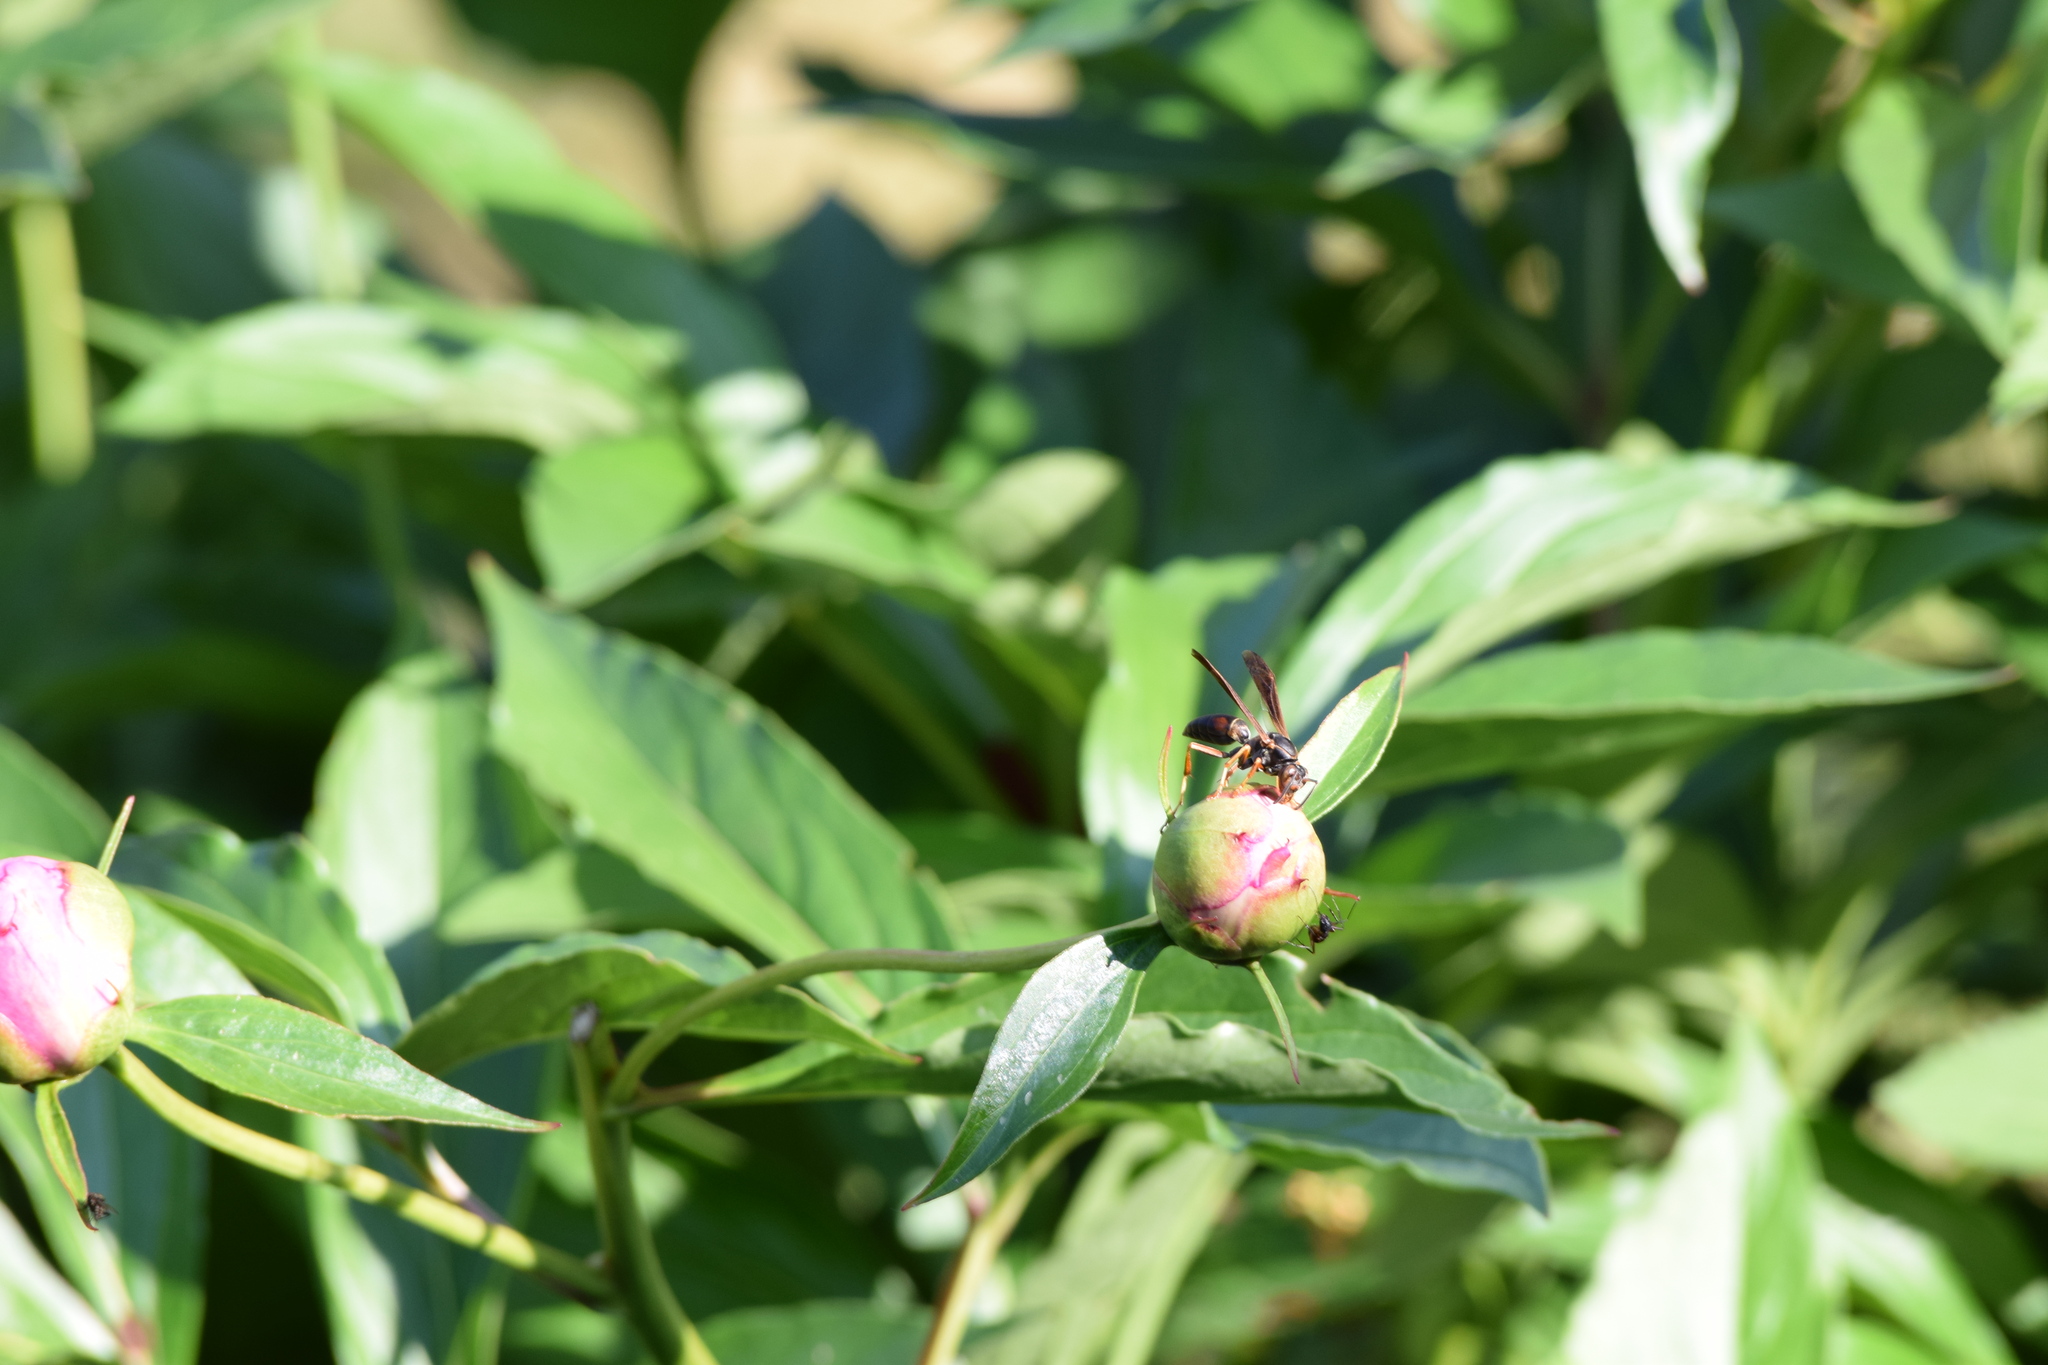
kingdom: Animalia
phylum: Arthropoda
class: Insecta
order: Hymenoptera
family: Eumenidae
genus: Polistes
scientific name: Polistes fuscatus
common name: Dark paper wasp
